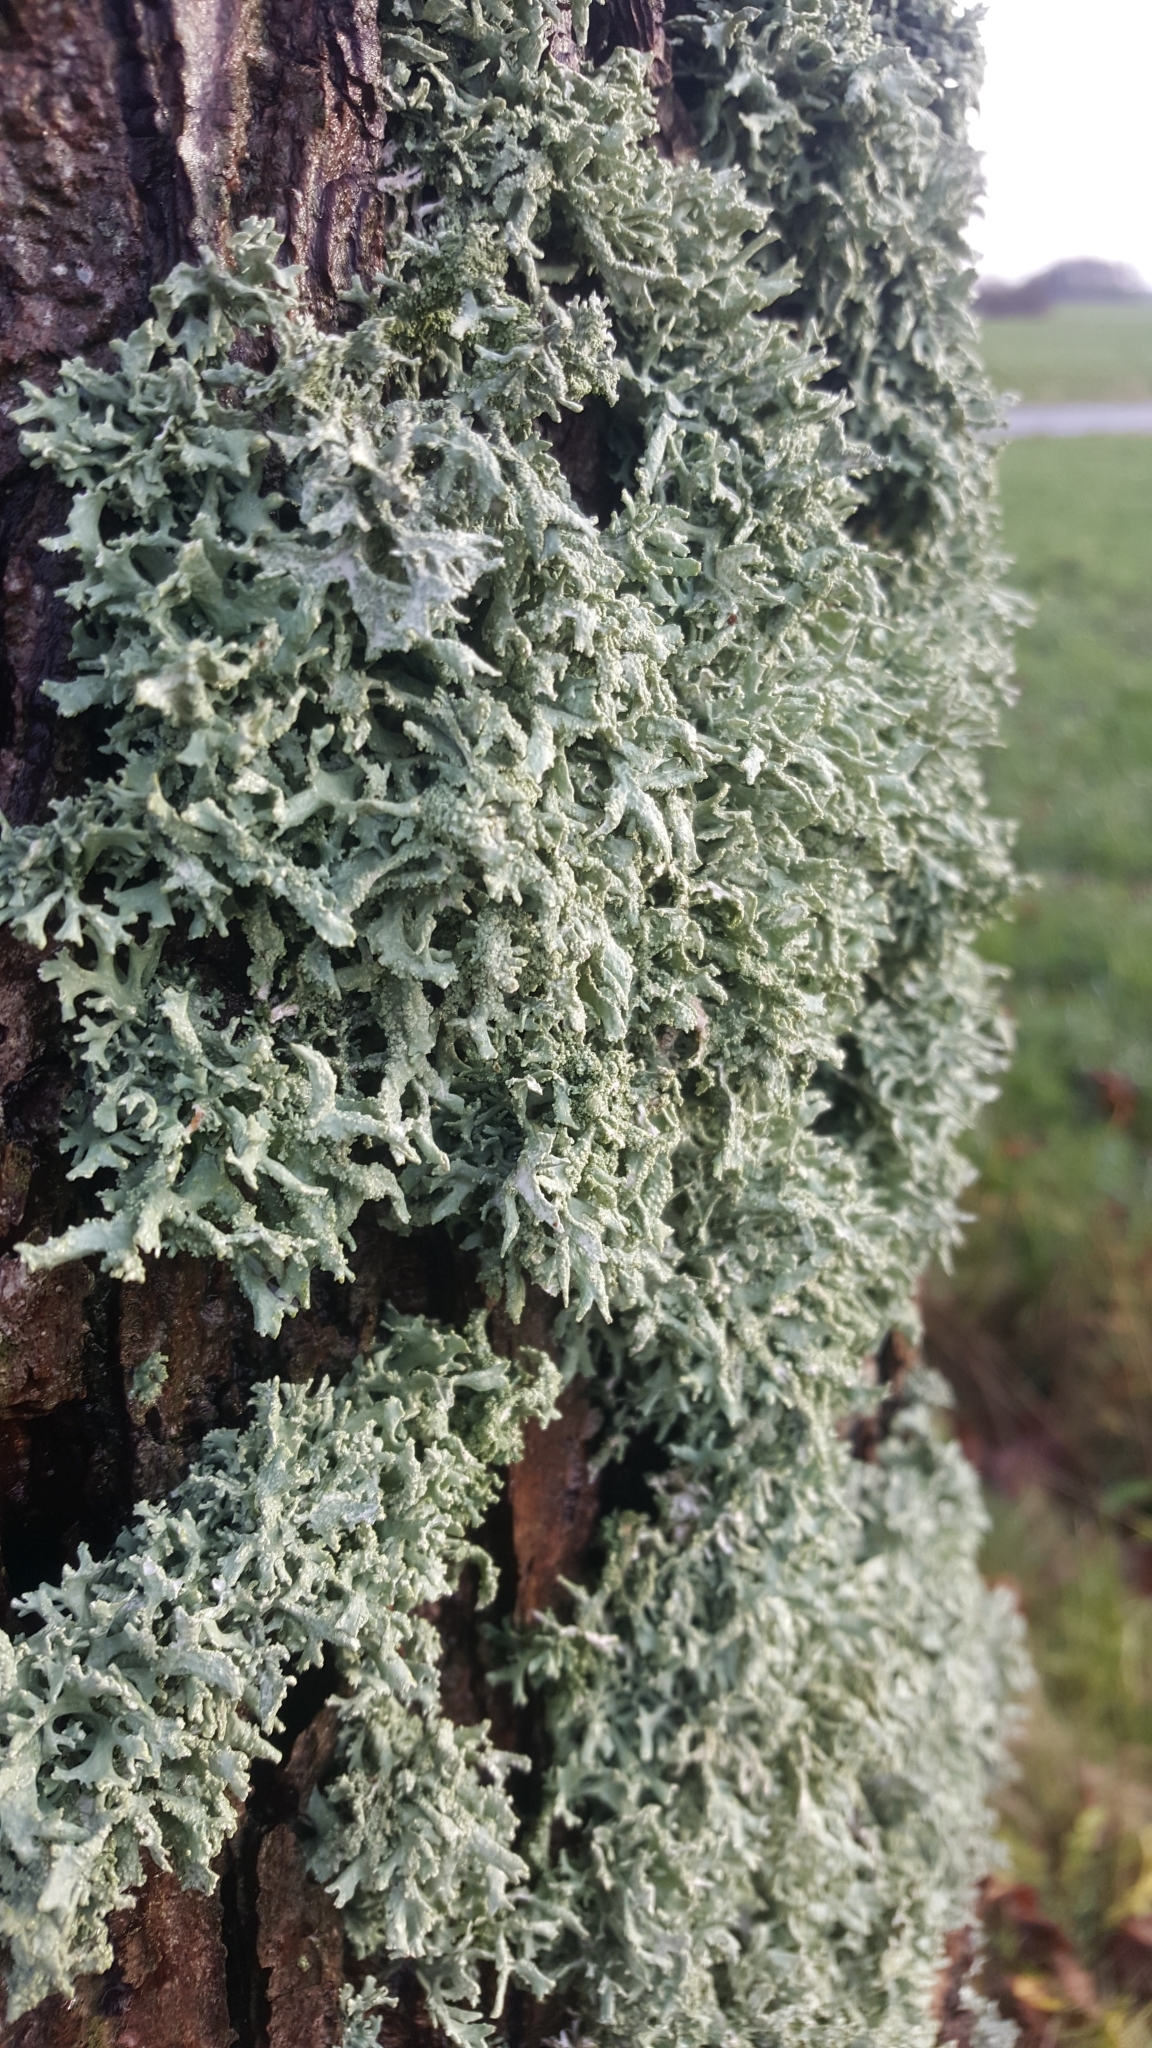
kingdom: Fungi
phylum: Ascomycota
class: Lecanoromycetes
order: Lecanorales
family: Parmeliaceae
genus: Evernia
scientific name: Evernia prunastri
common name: Oak moss
